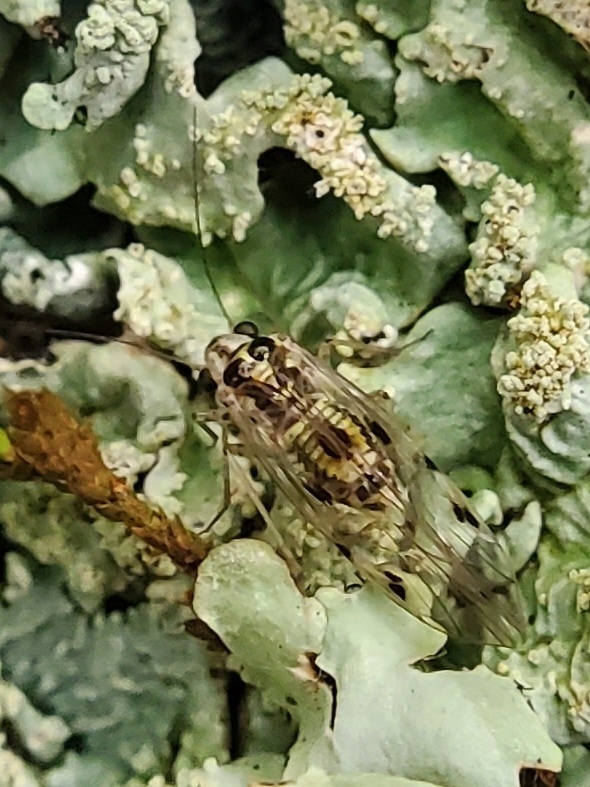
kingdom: Animalia
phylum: Arthropoda
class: Insecta
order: Psocodea
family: Psocidae
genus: Psocus
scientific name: Psocus leidyi
